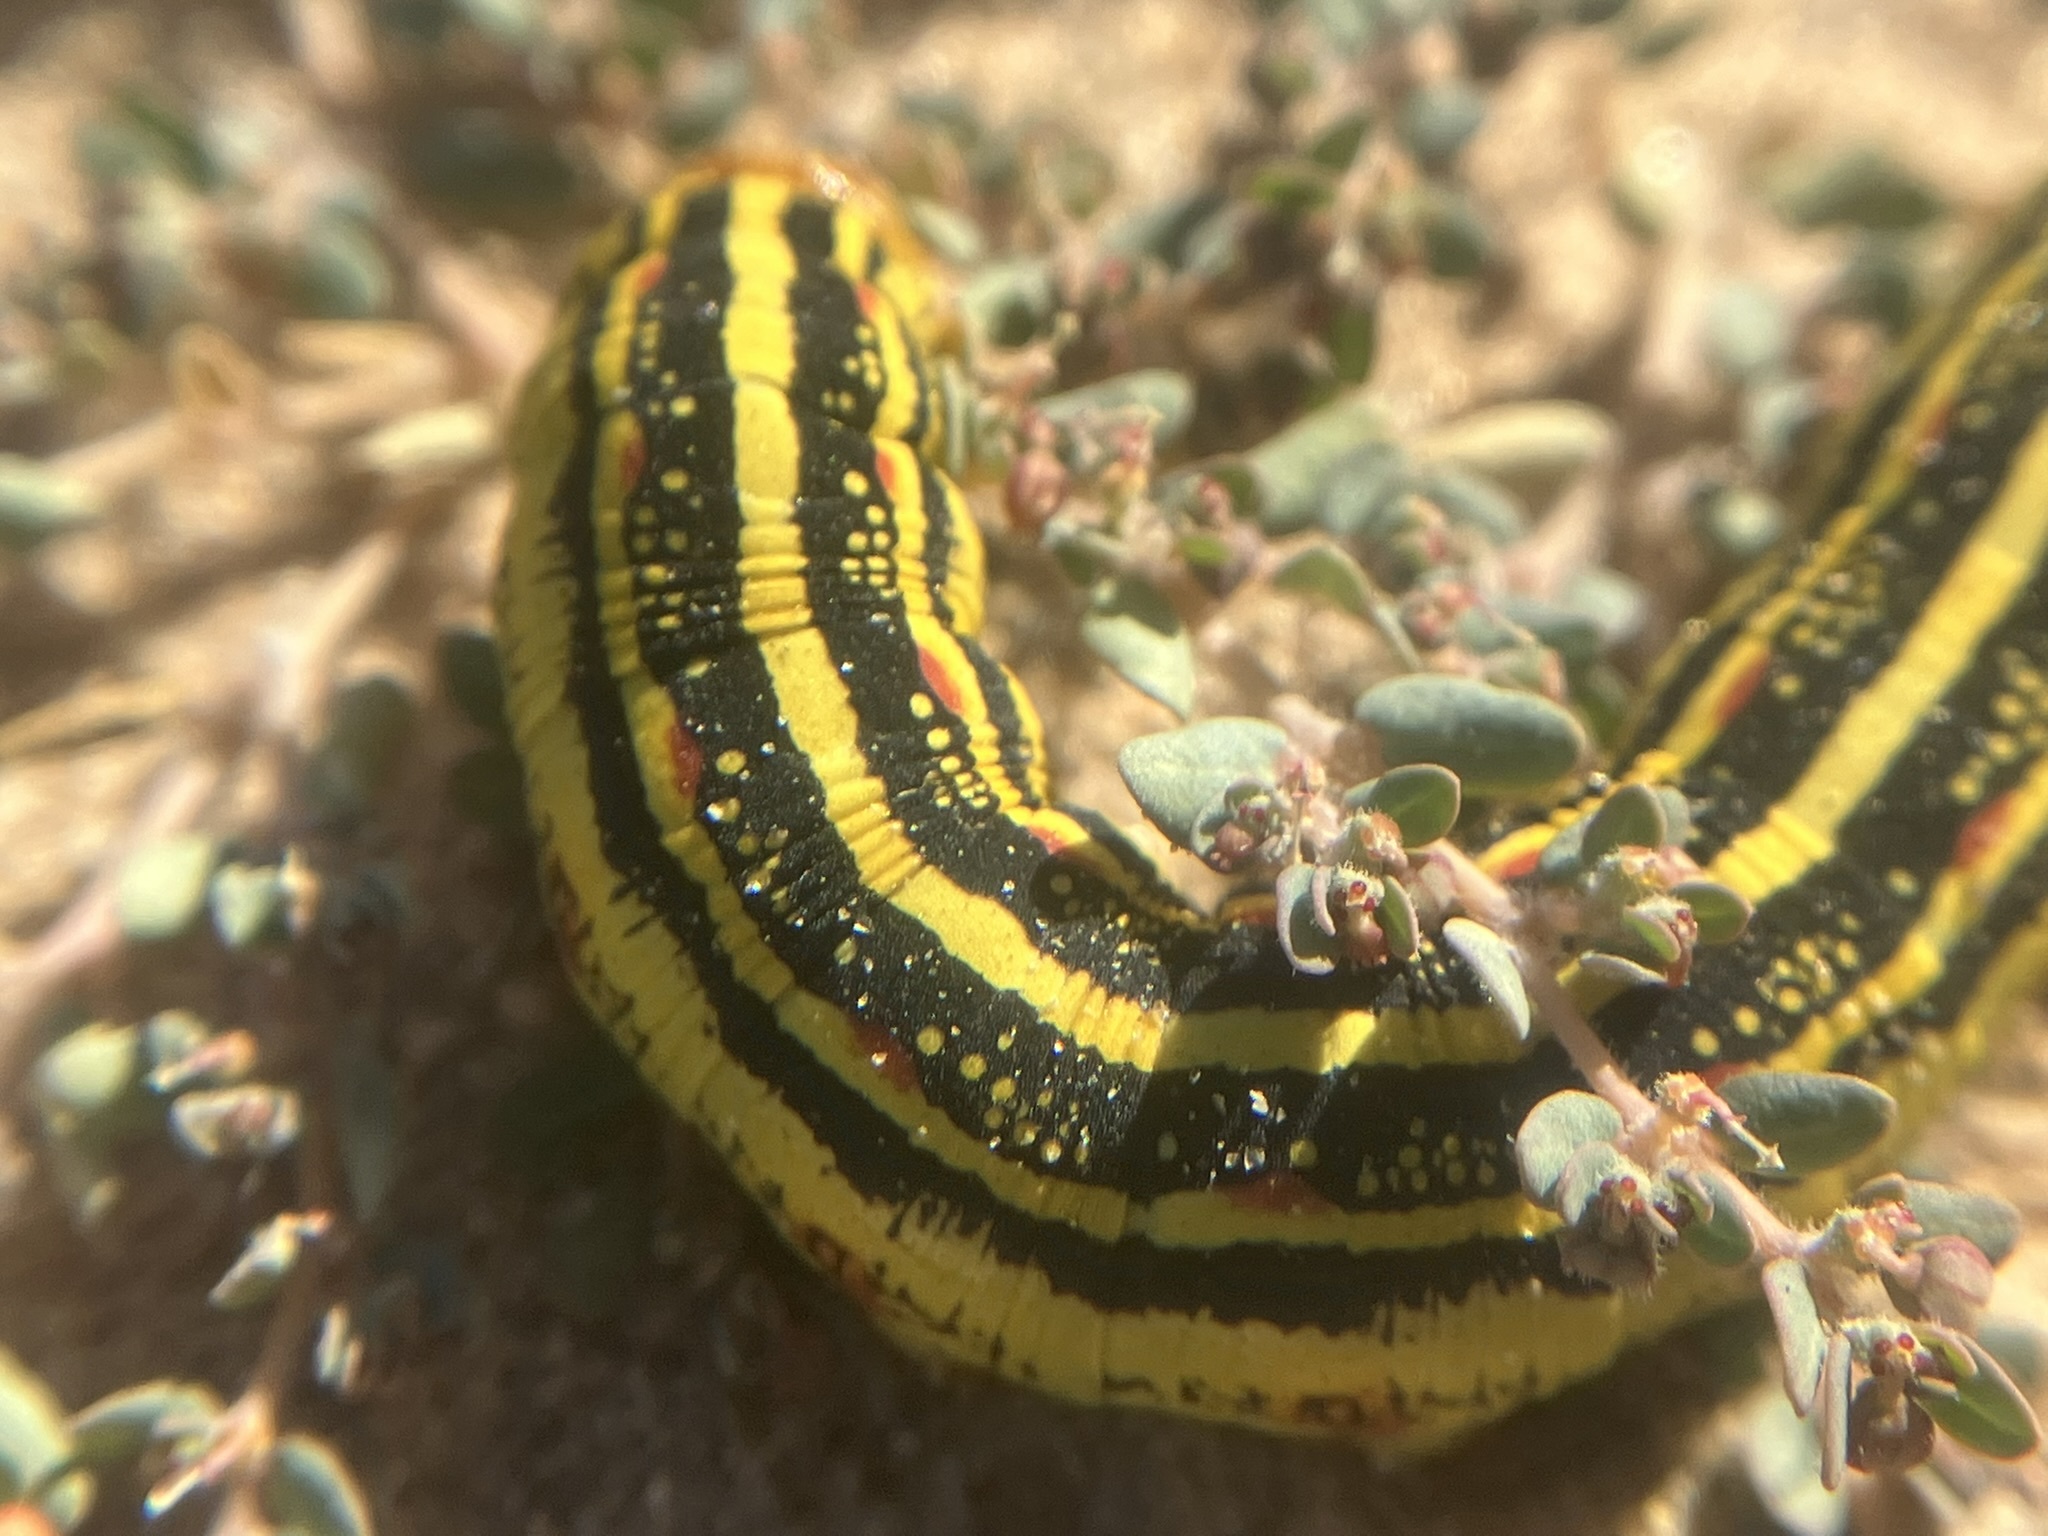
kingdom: Animalia
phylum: Arthropoda
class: Insecta
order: Lepidoptera
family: Sphingidae
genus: Hyles
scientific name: Hyles lineata
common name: White-lined sphinx
